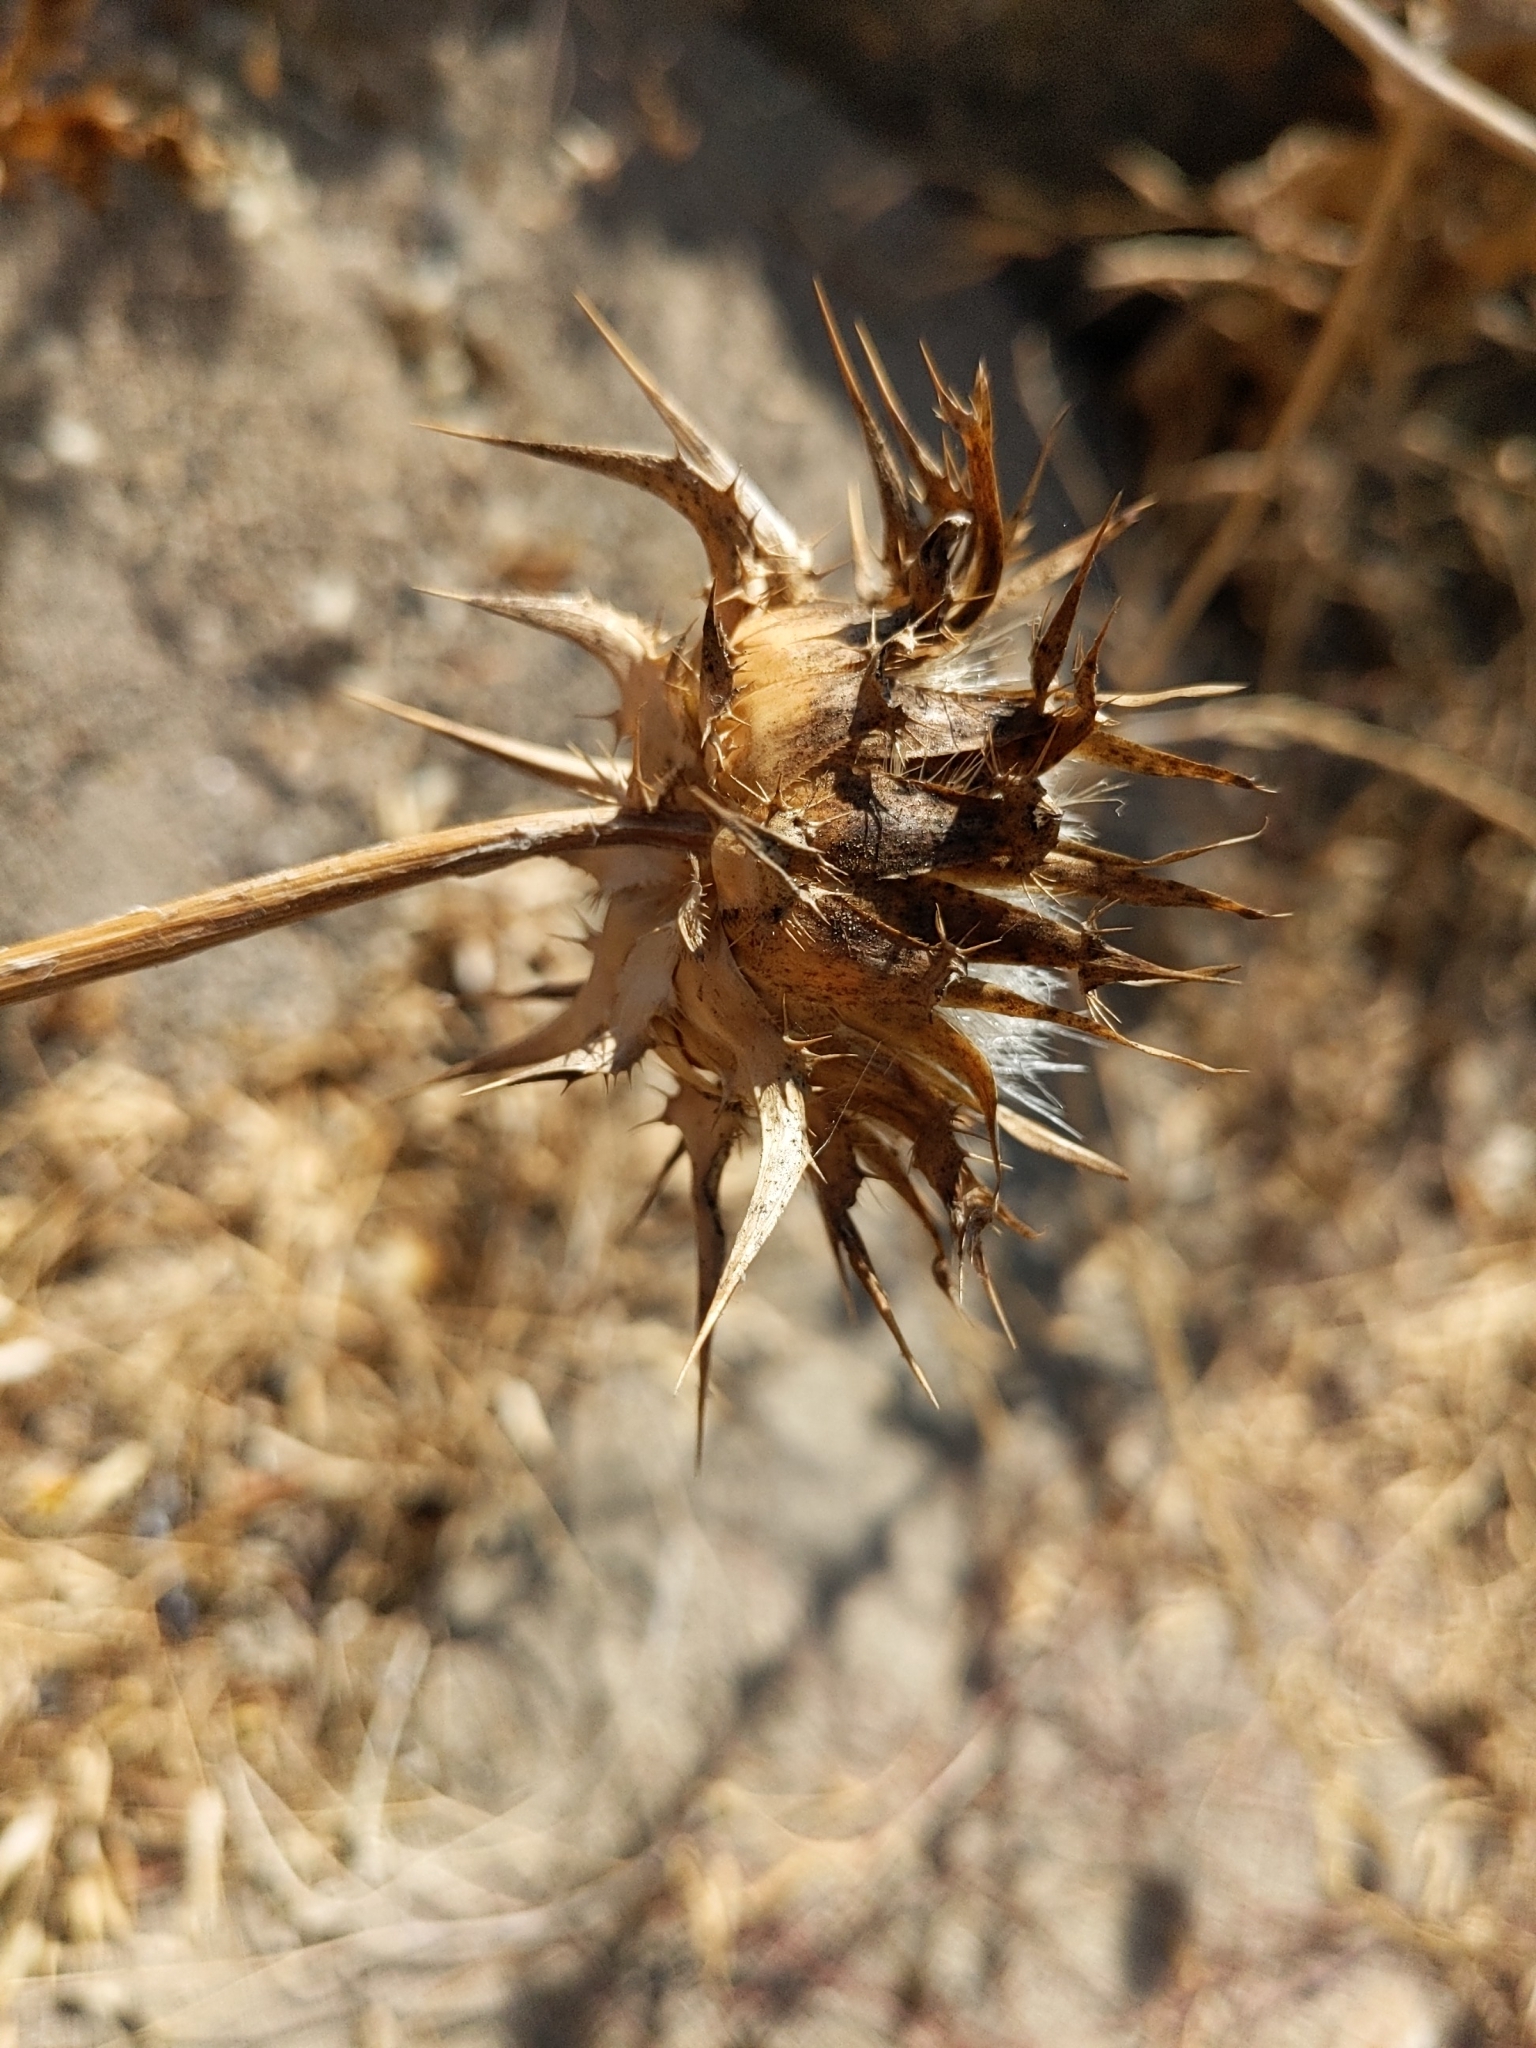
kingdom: Plantae
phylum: Tracheophyta
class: Magnoliopsida
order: Asterales
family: Asteraceae
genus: Silybum
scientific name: Silybum marianum
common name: Milk thistle
